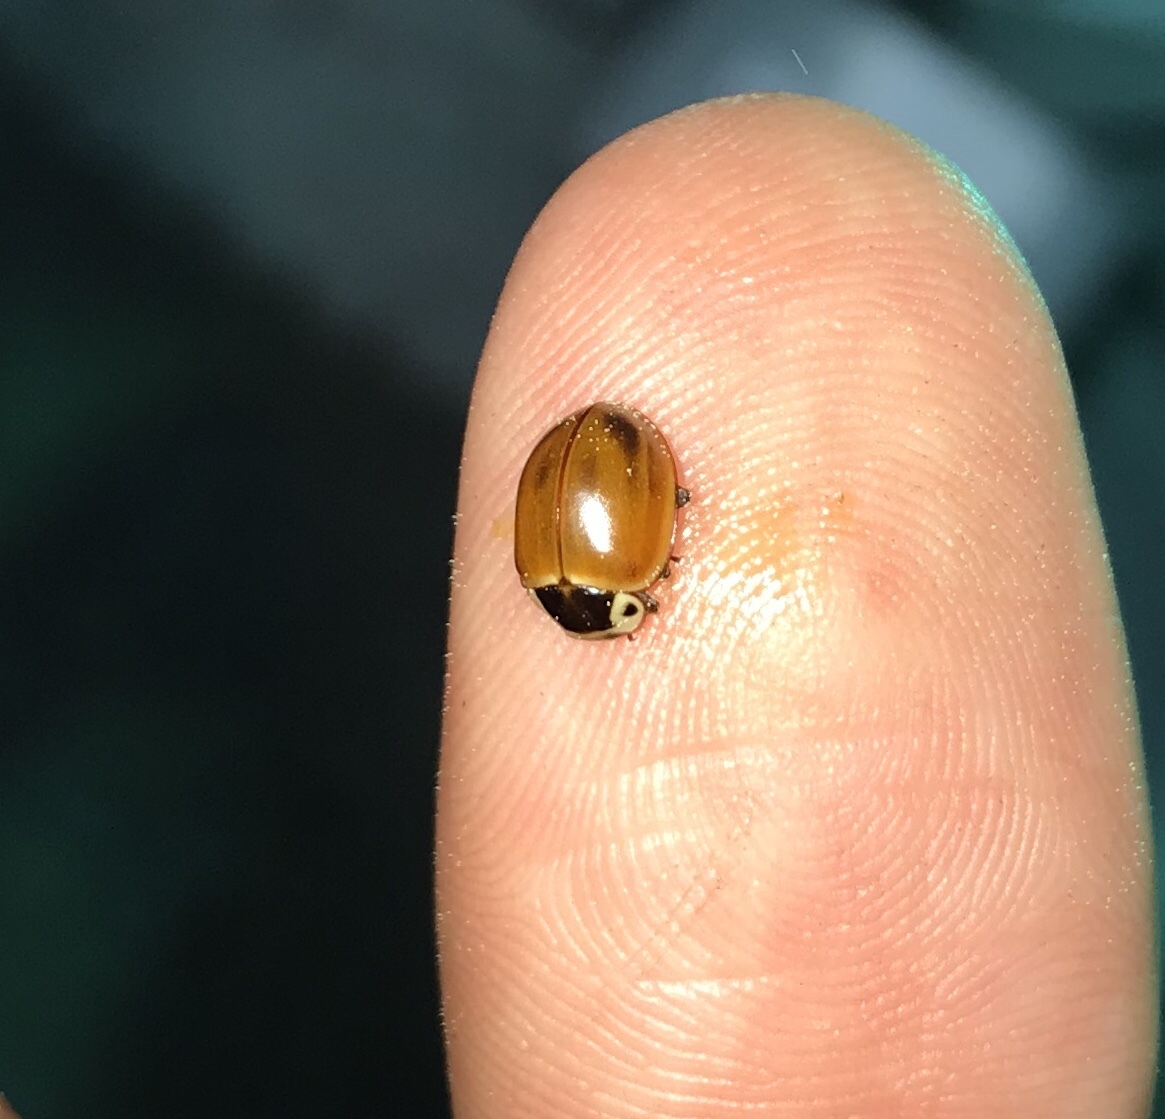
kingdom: Animalia
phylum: Arthropoda
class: Insecta
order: Coleoptera
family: Coccinellidae
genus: Myzia
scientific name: Myzia pullata
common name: Streaked lady beetle
